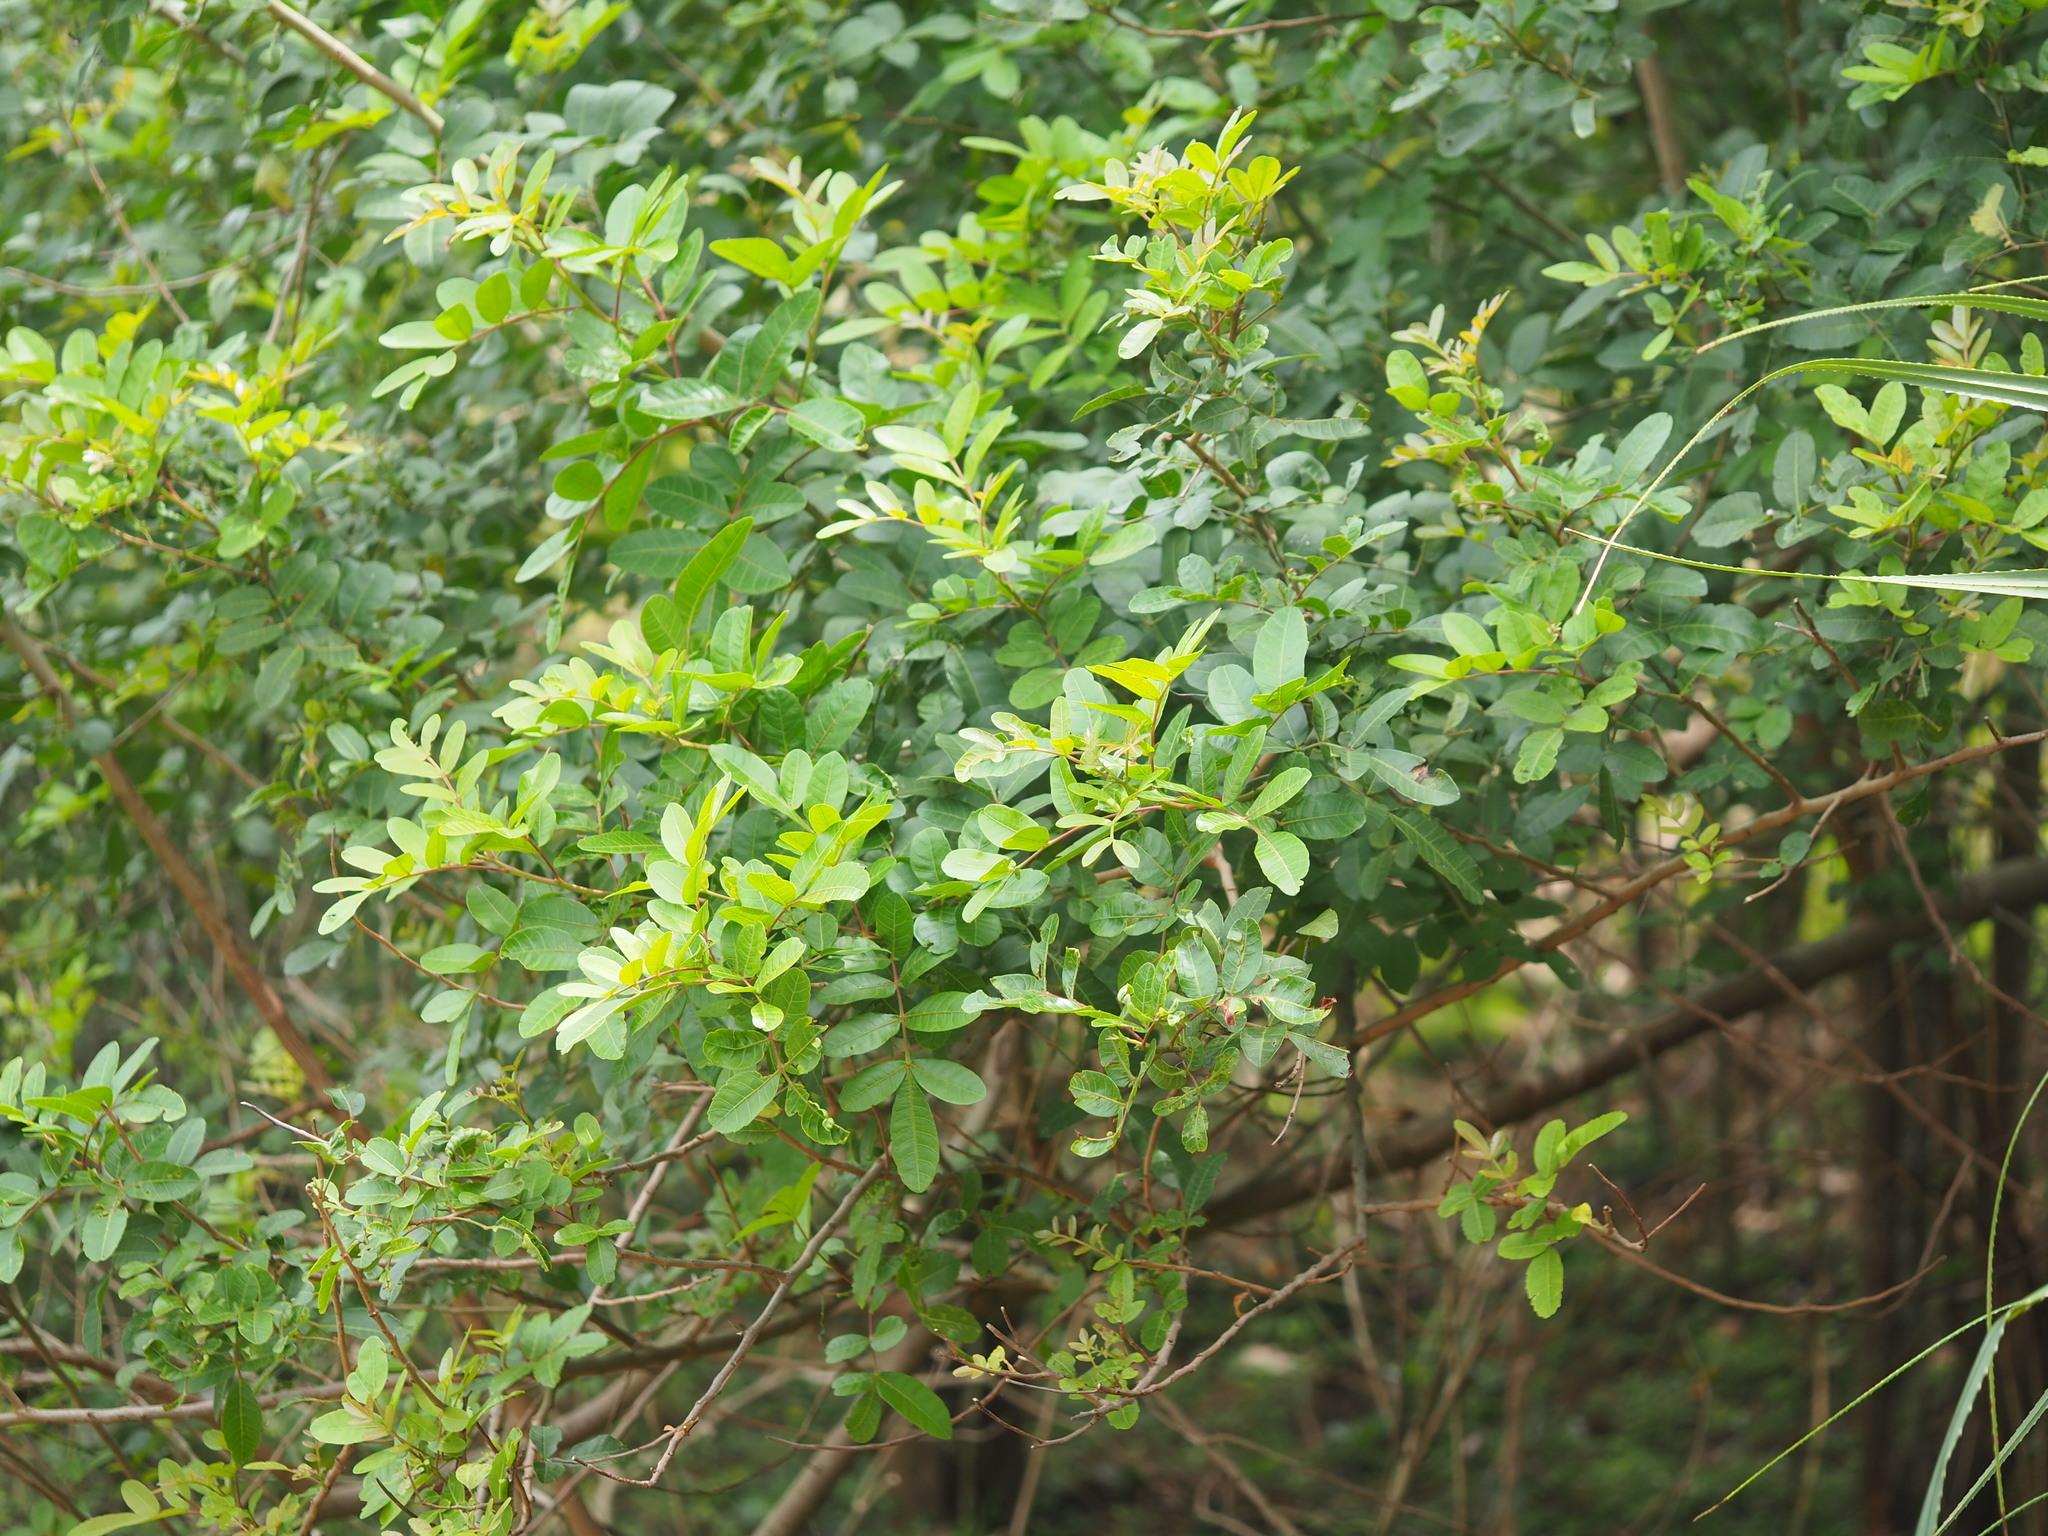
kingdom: Plantae
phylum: Tracheophyta
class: Magnoliopsida
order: Sapindales
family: Anacardiaceae
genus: Schinus
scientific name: Schinus terebinthifolia
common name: Brazilian peppertree
